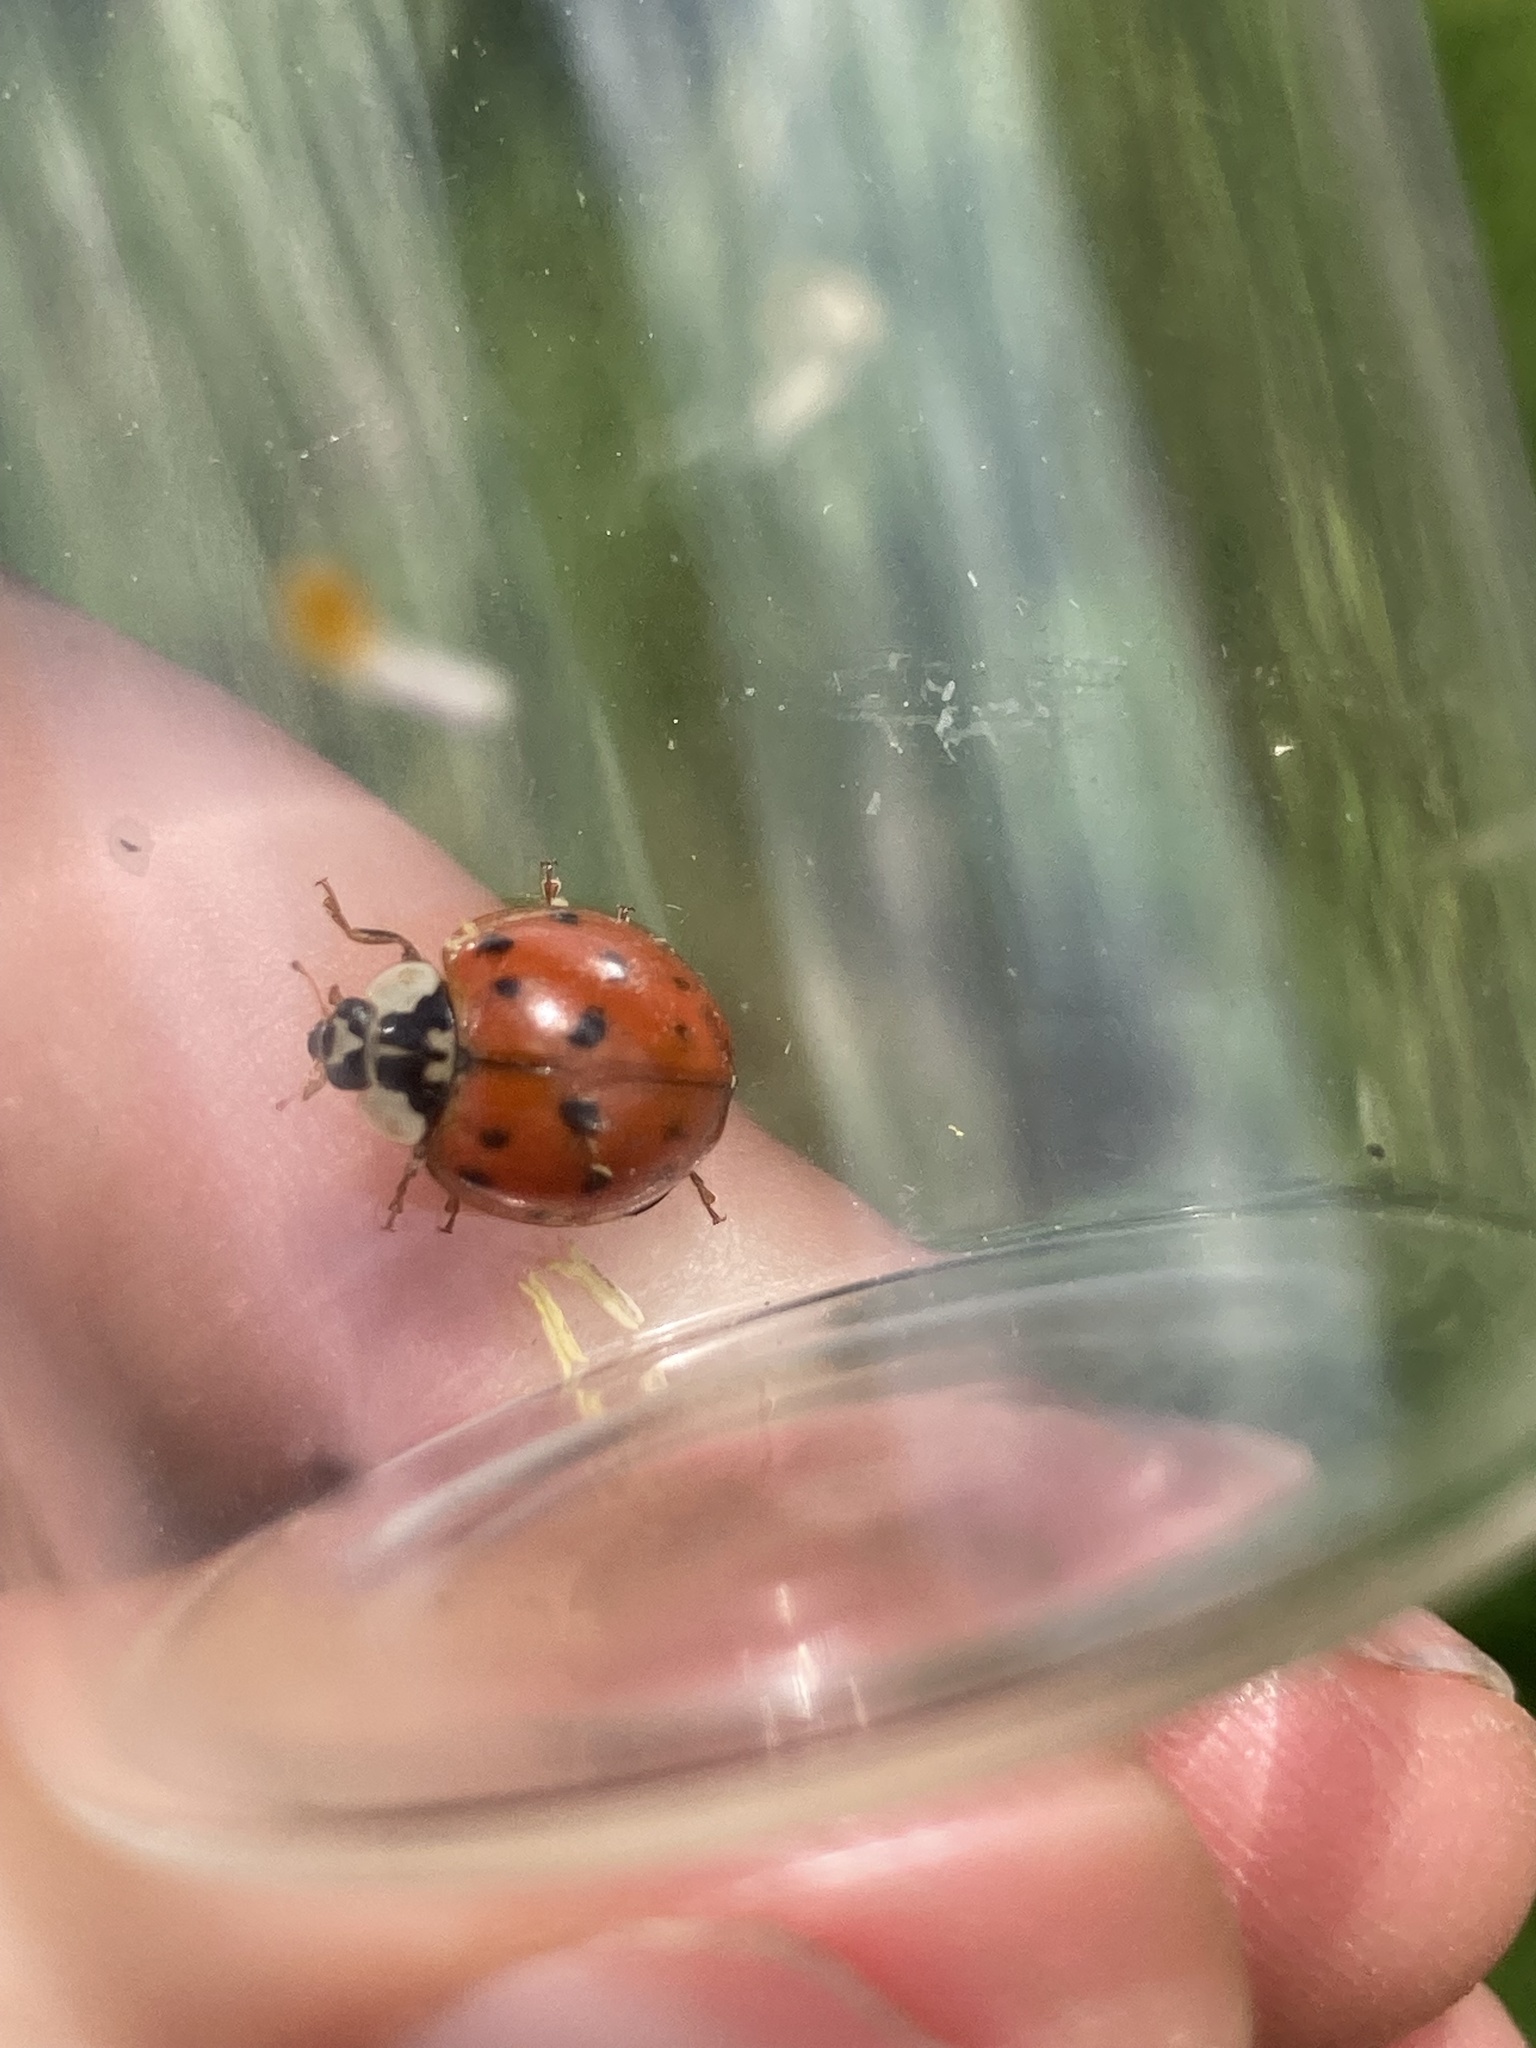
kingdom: Animalia
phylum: Arthropoda
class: Insecta
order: Coleoptera
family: Coccinellidae
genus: Harmonia
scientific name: Harmonia axyridis
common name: Harlequin ladybird
